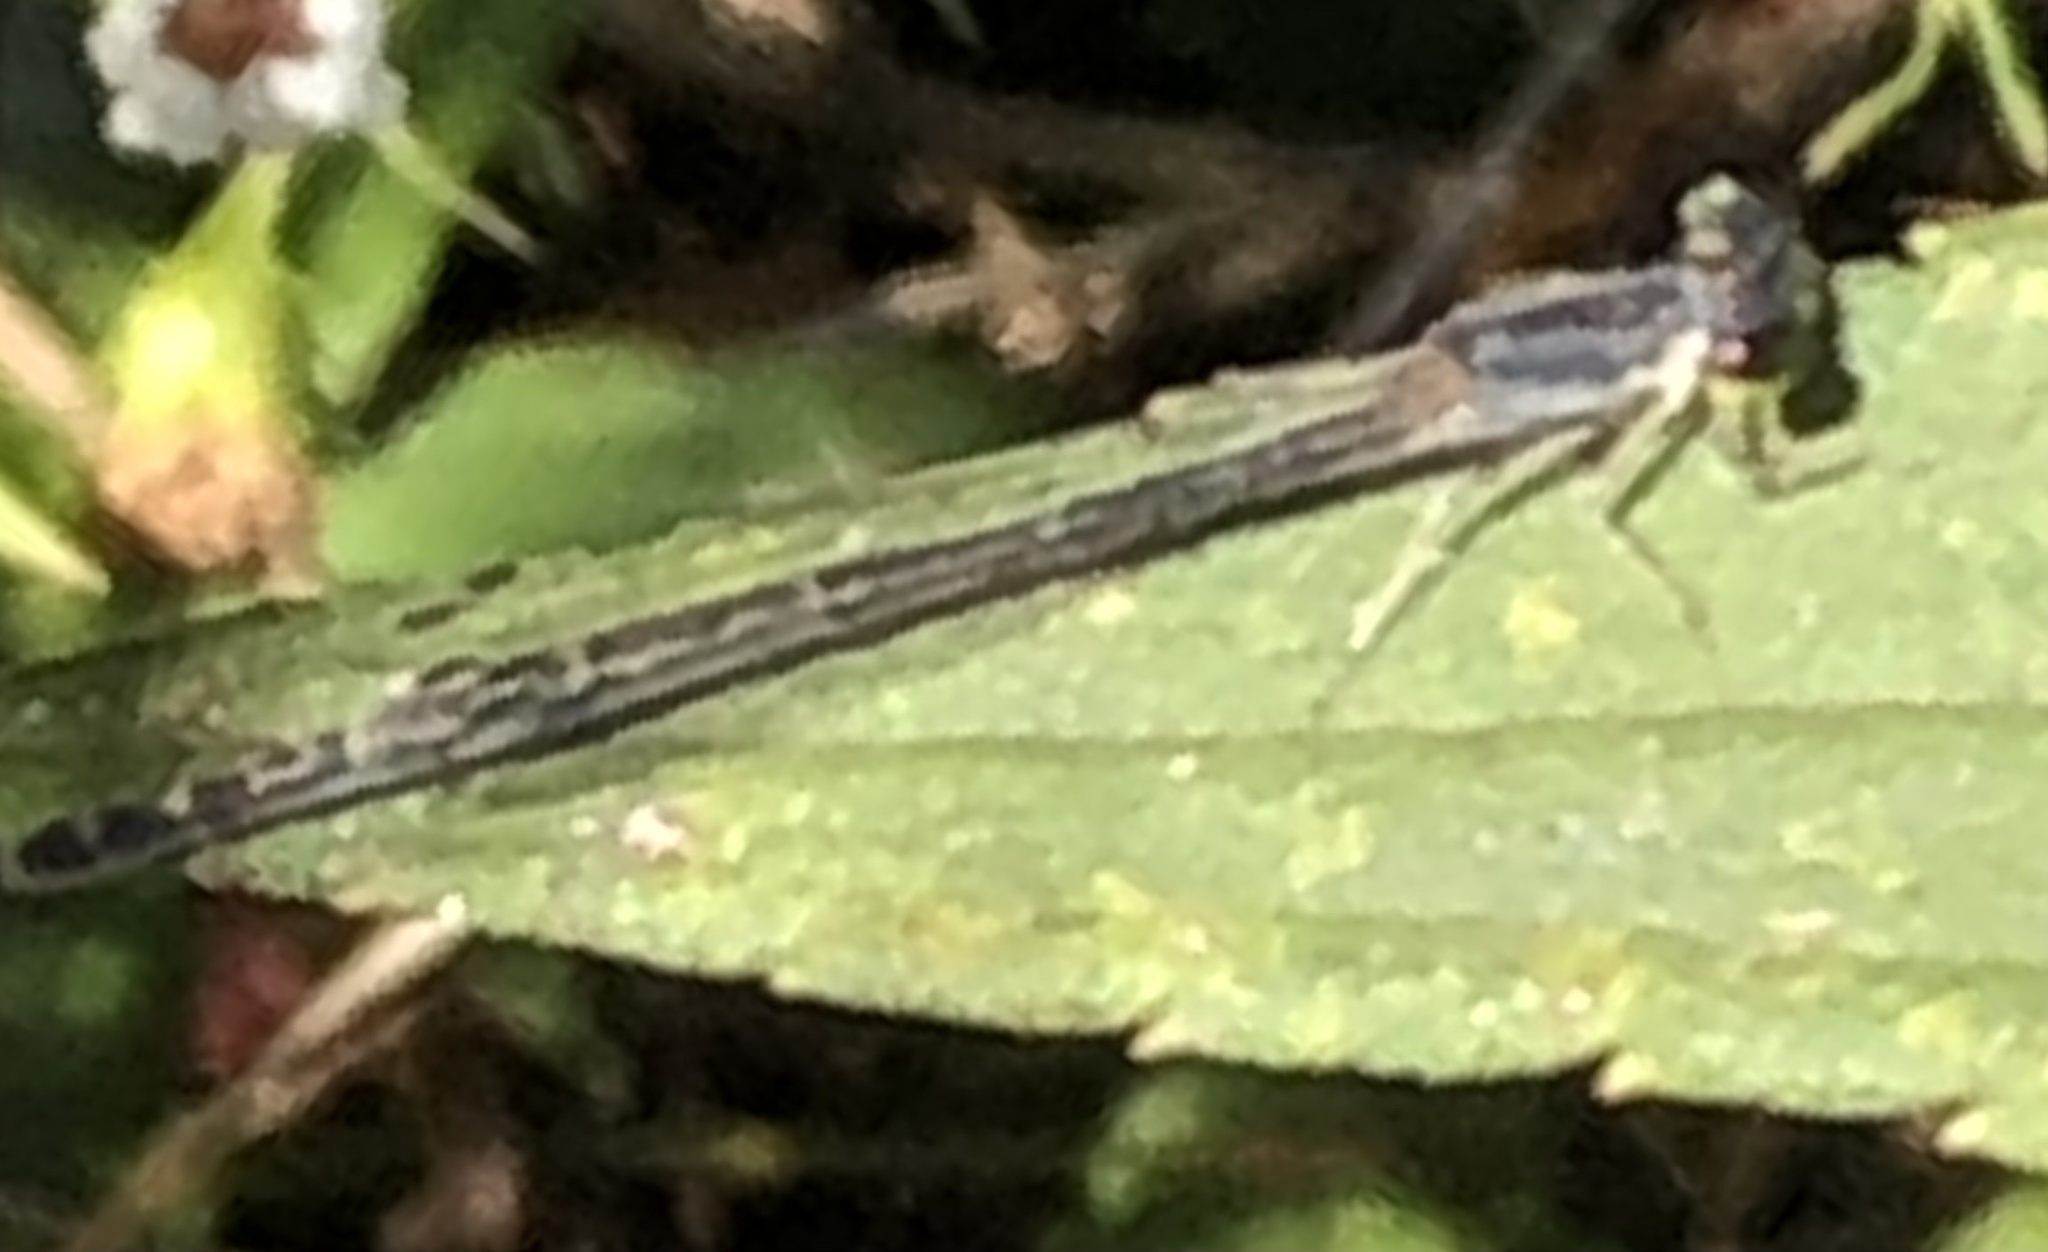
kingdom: Animalia
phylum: Arthropoda
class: Insecta
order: Odonata
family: Coenagrionidae
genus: Ischnura
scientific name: Ischnura posita
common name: Fragile forktail
